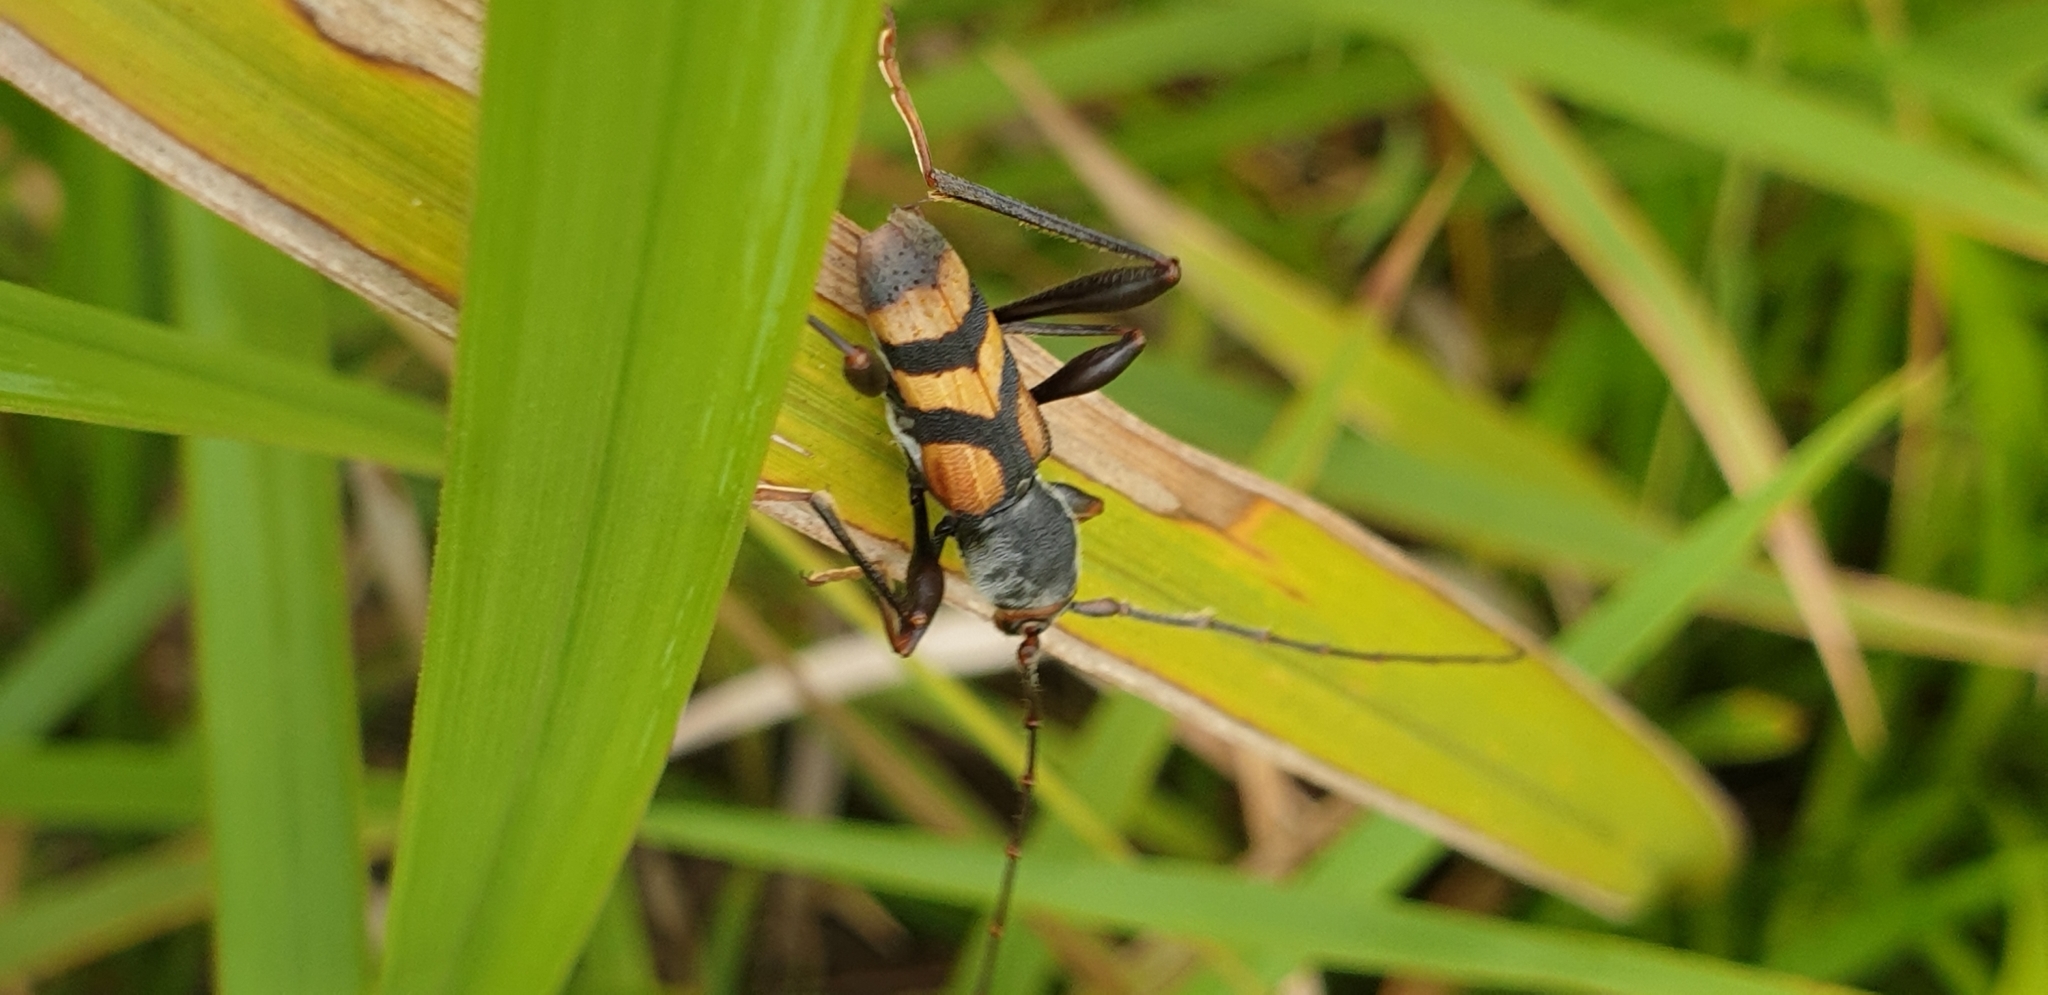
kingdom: Animalia
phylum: Arthropoda
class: Insecta
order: Coleoptera
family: Cerambycidae
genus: Aridaeus
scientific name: Aridaeus thoracicus
